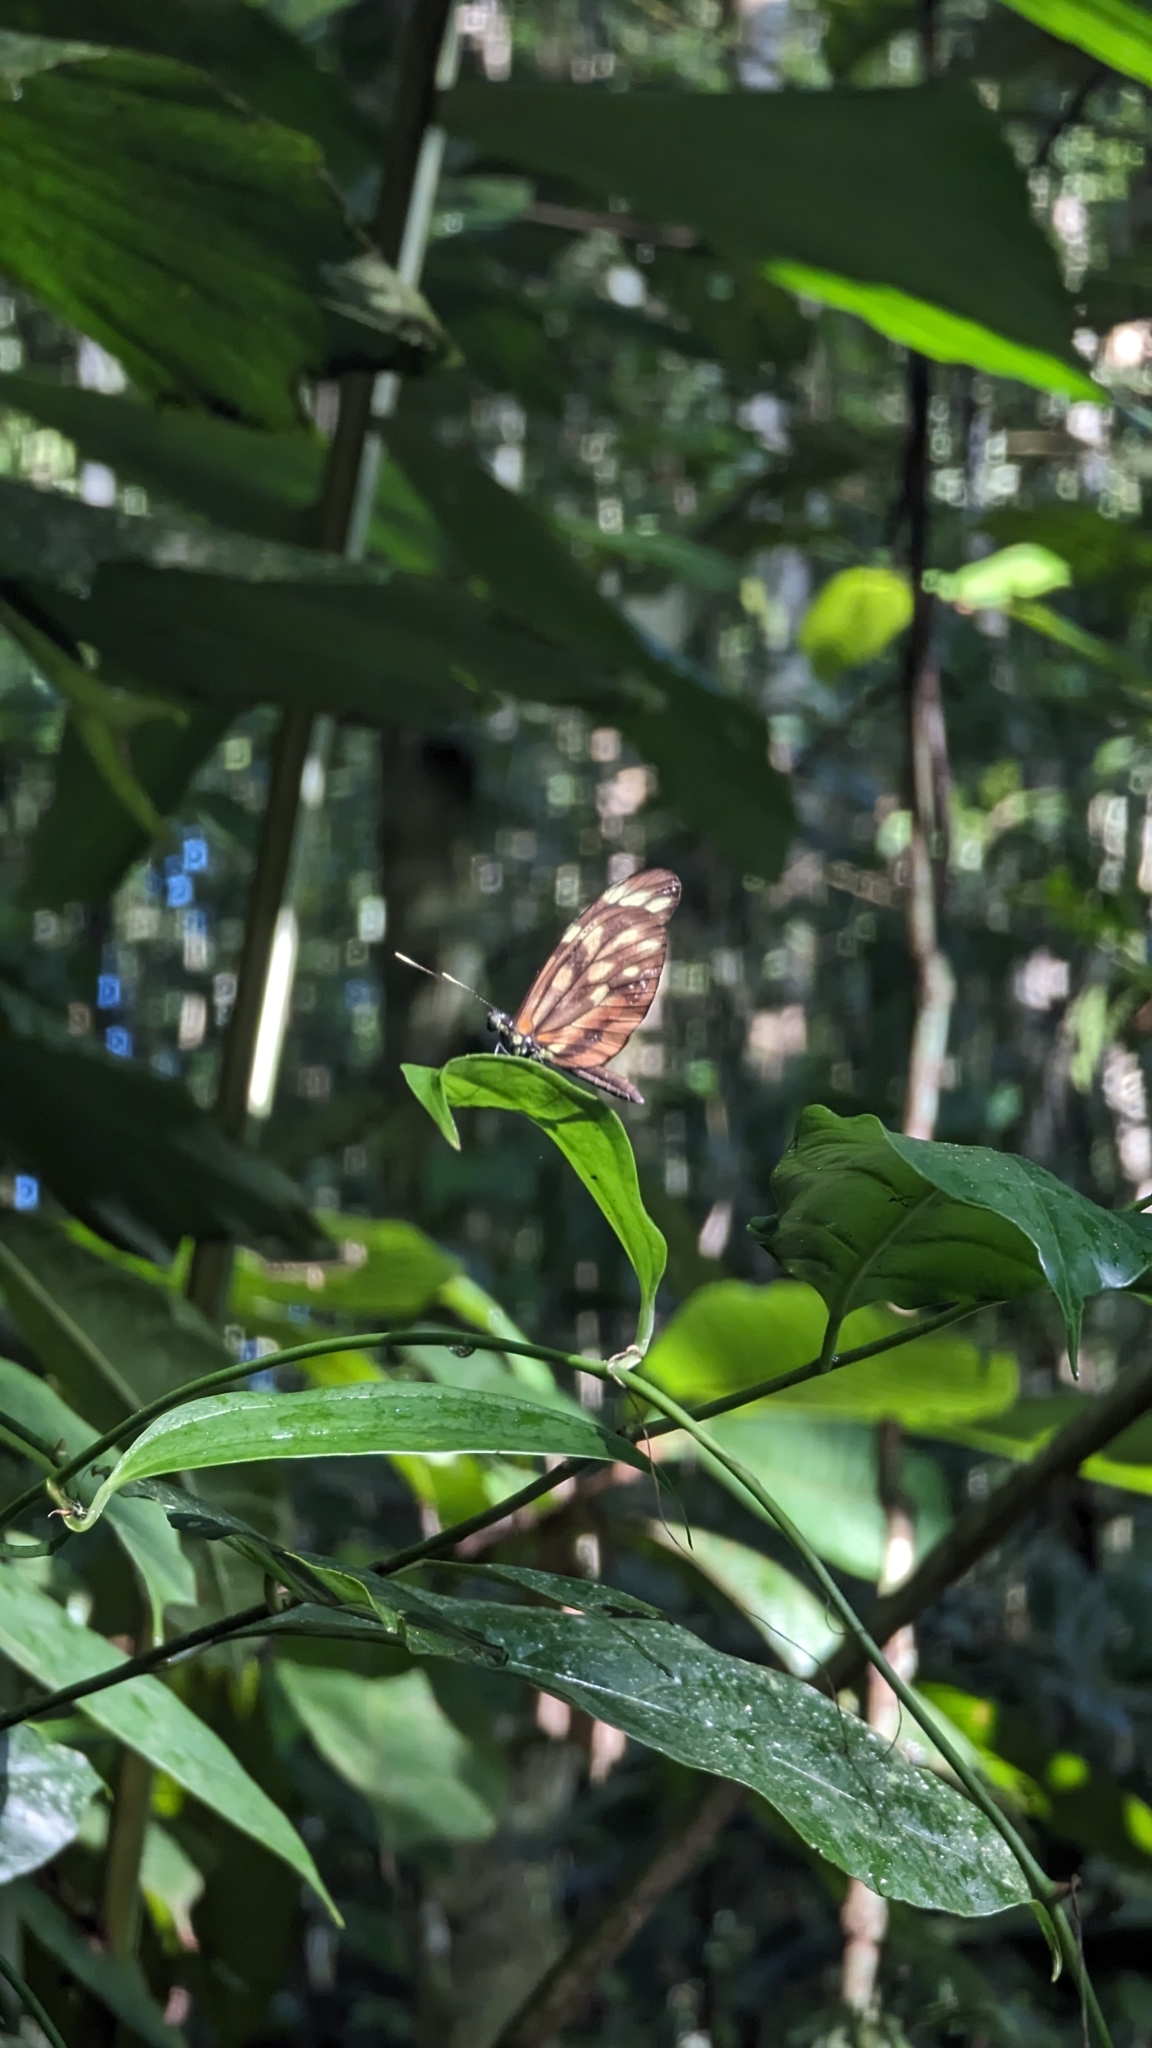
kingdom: Animalia
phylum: Arthropoda
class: Insecta
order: Lepidoptera
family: Pieridae
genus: Dismorphia
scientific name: Dismorphia amphione
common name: Tiger mimic-white
